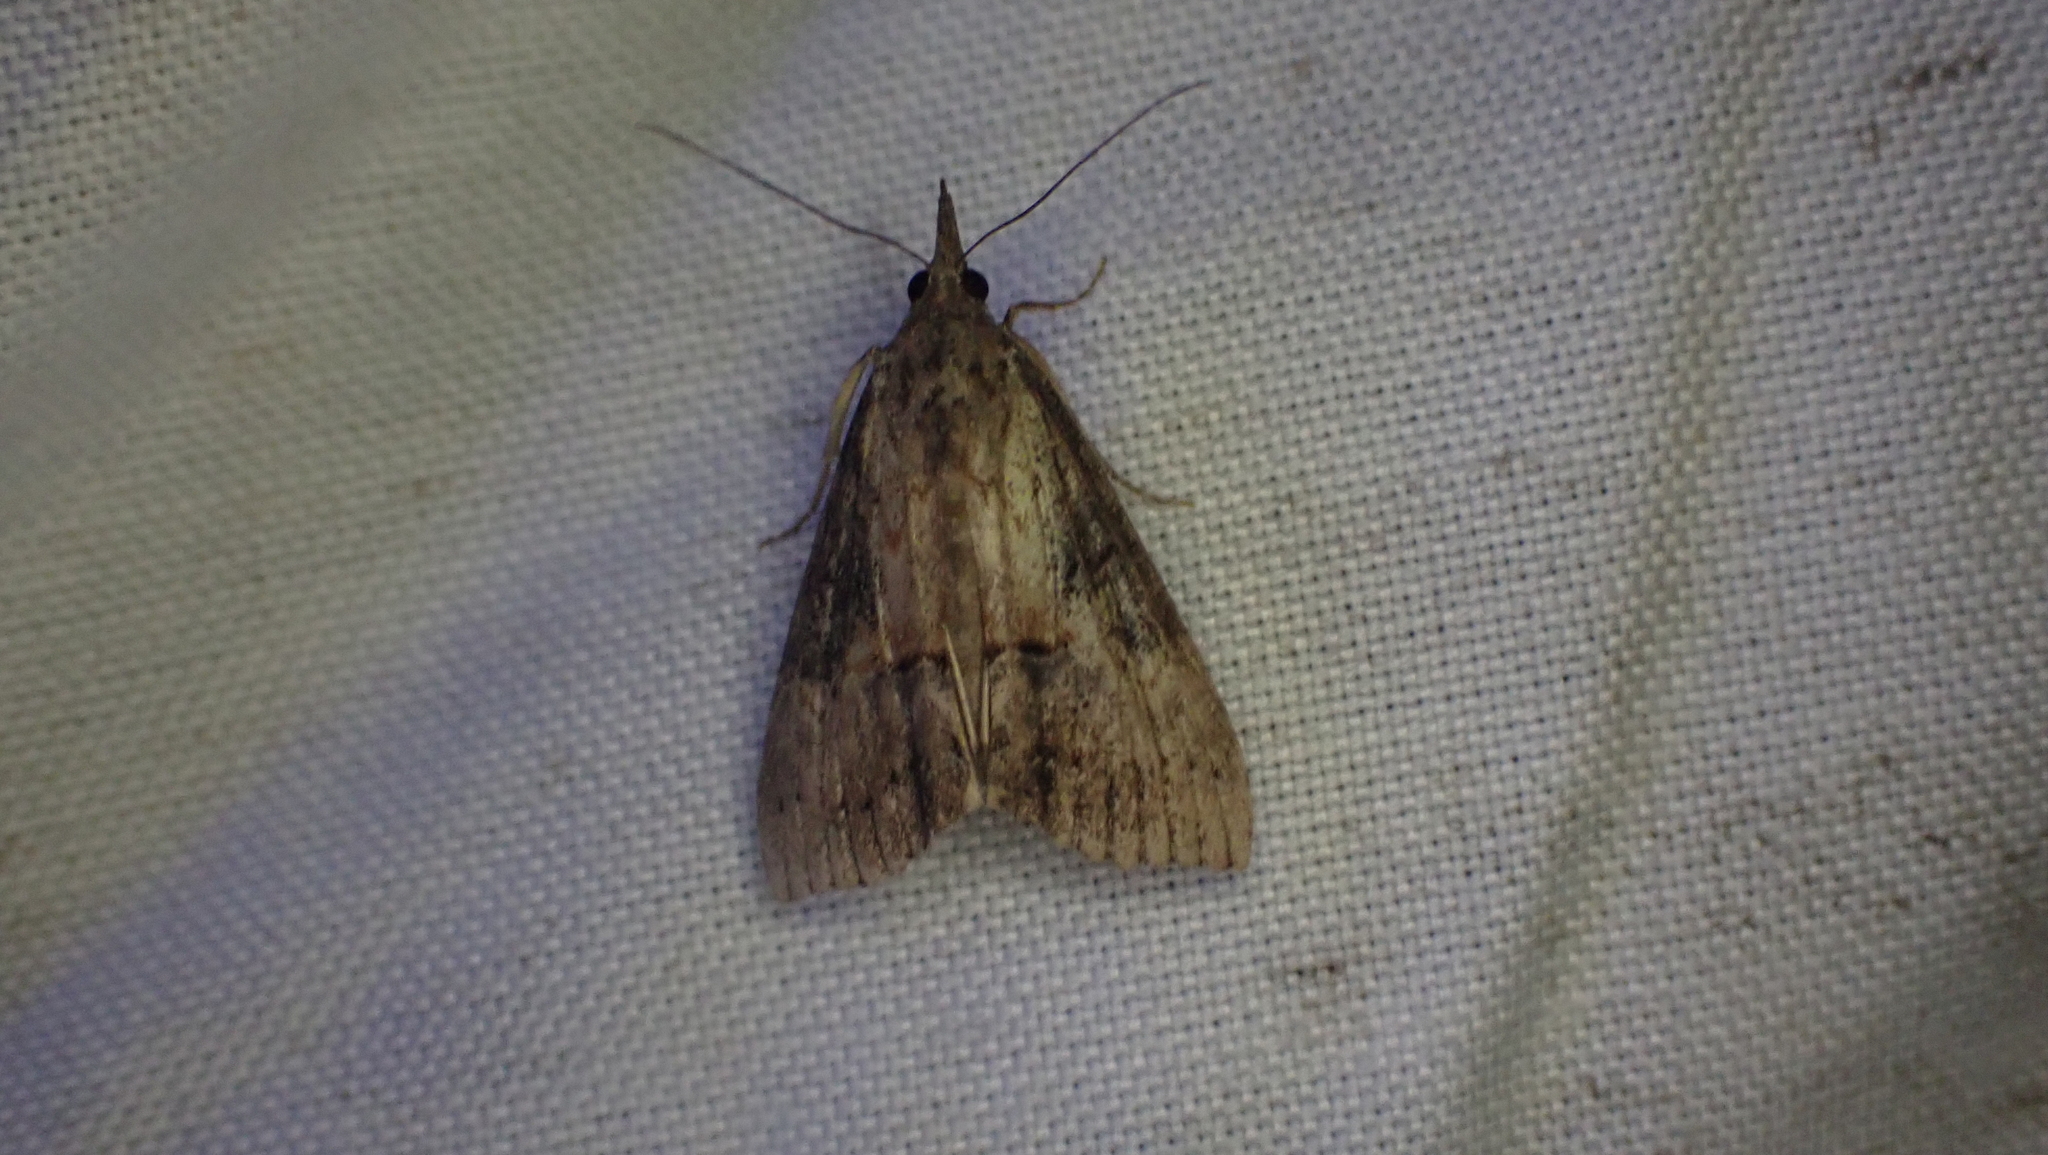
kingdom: Animalia
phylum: Arthropoda
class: Insecta
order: Lepidoptera
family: Erebidae
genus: Hypena
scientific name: Hypena scabra
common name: Green cloverworm
